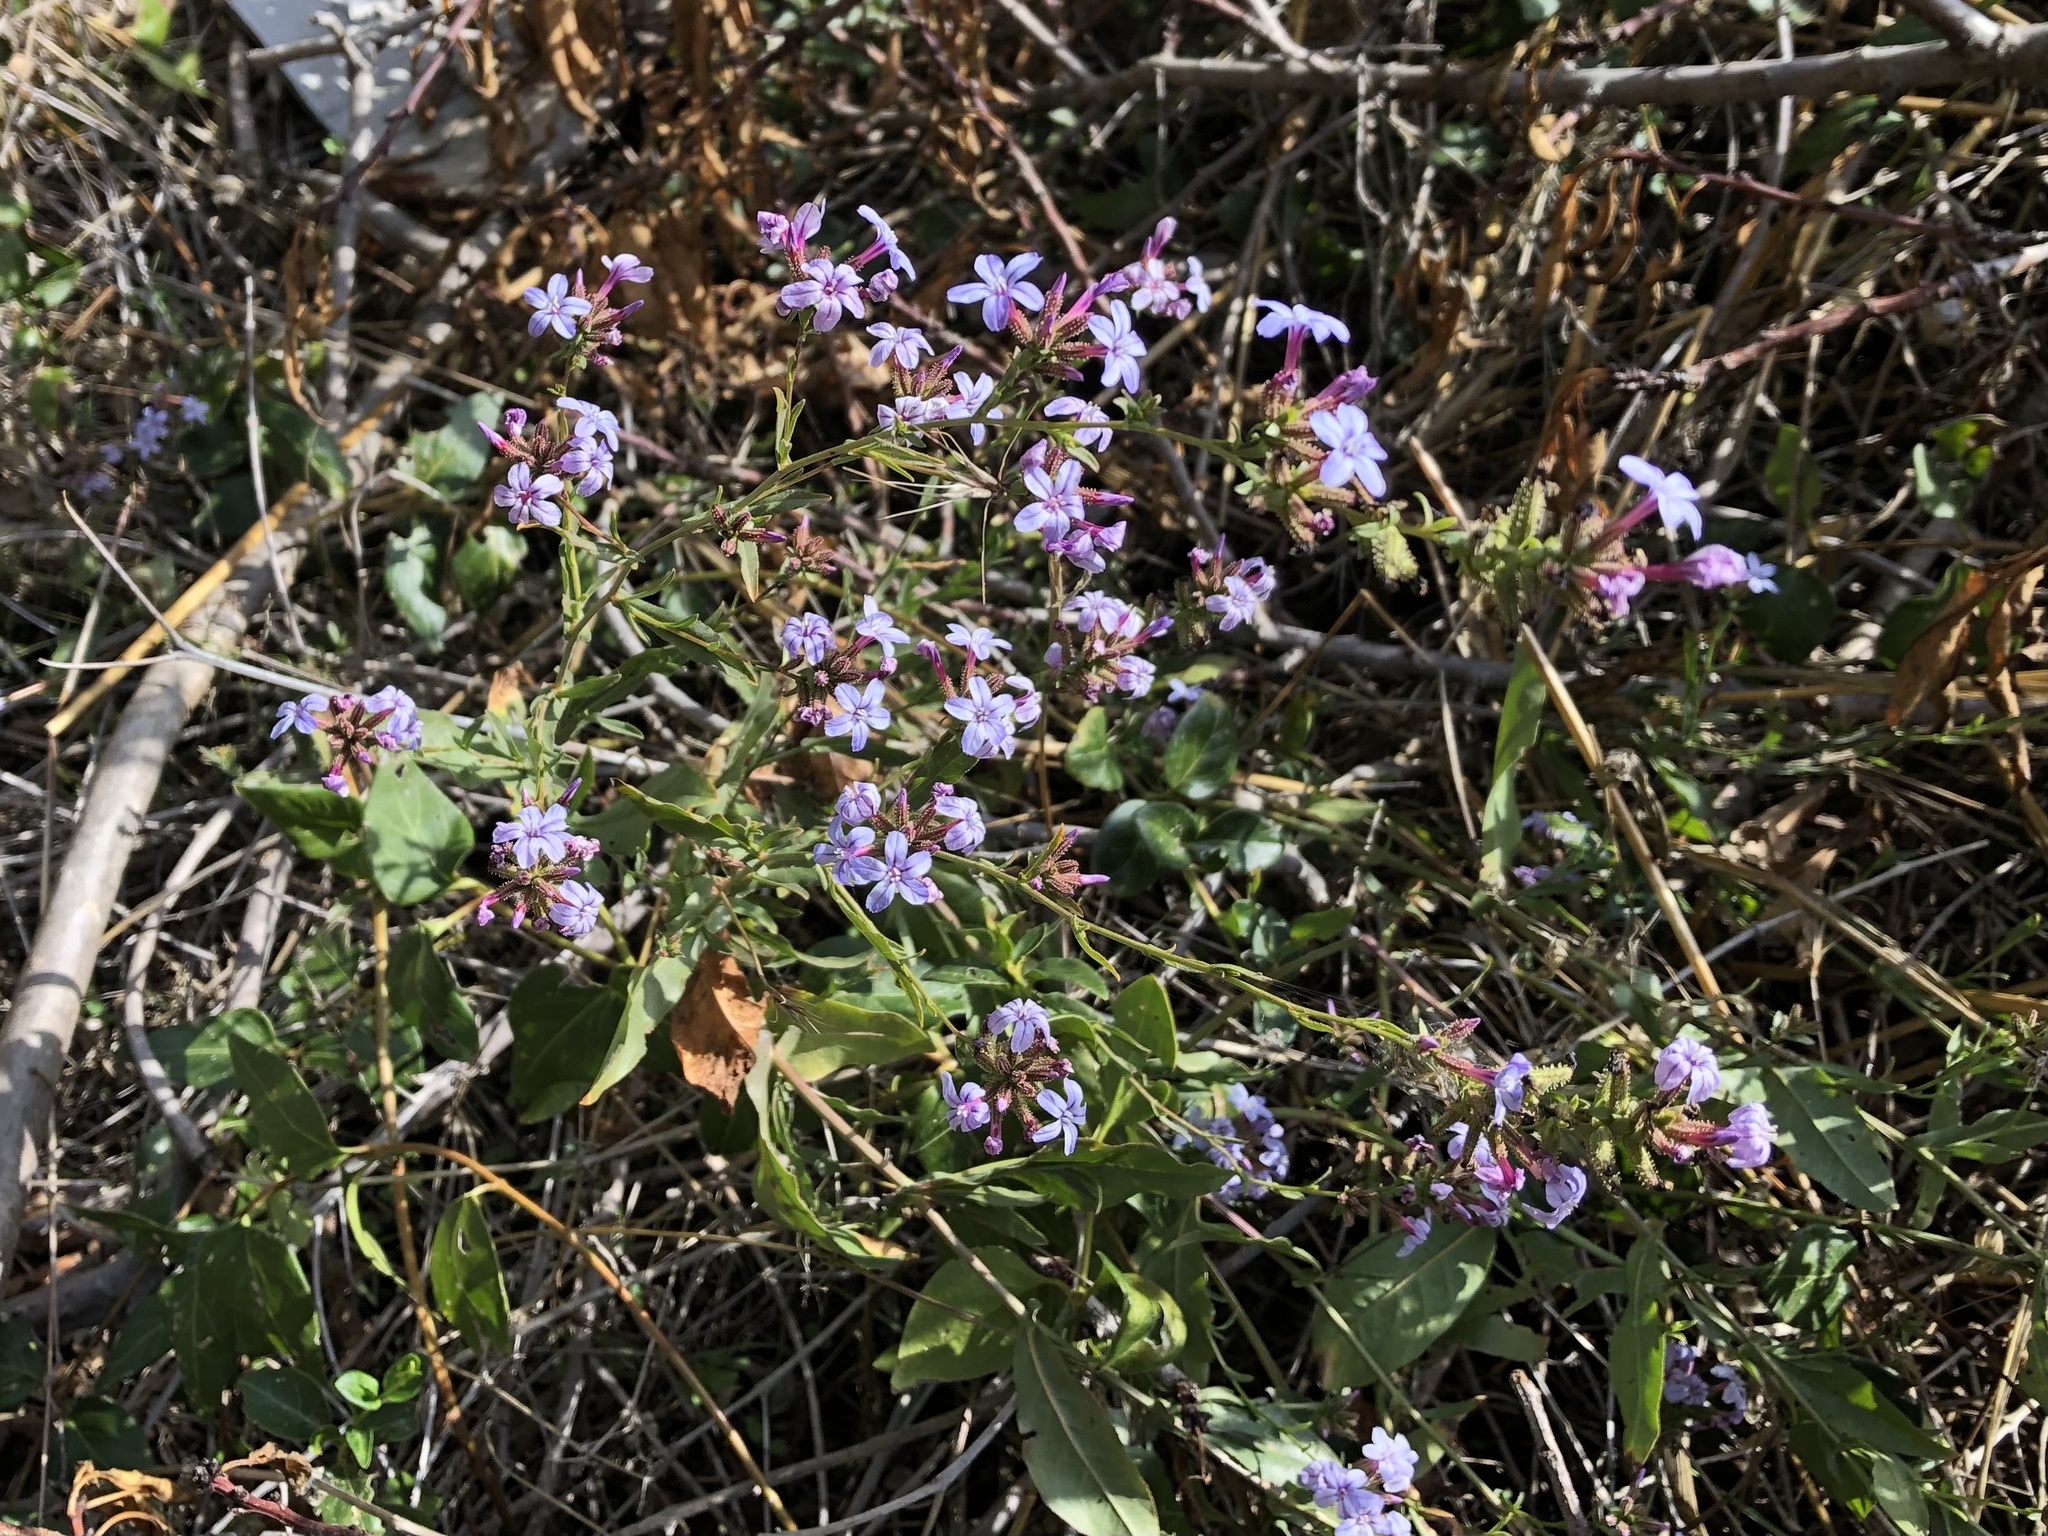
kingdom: Plantae
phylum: Tracheophyta
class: Magnoliopsida
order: Caryophyllales
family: Plumbaginaceae
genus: Plumbago
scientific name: Plumbago europaea
